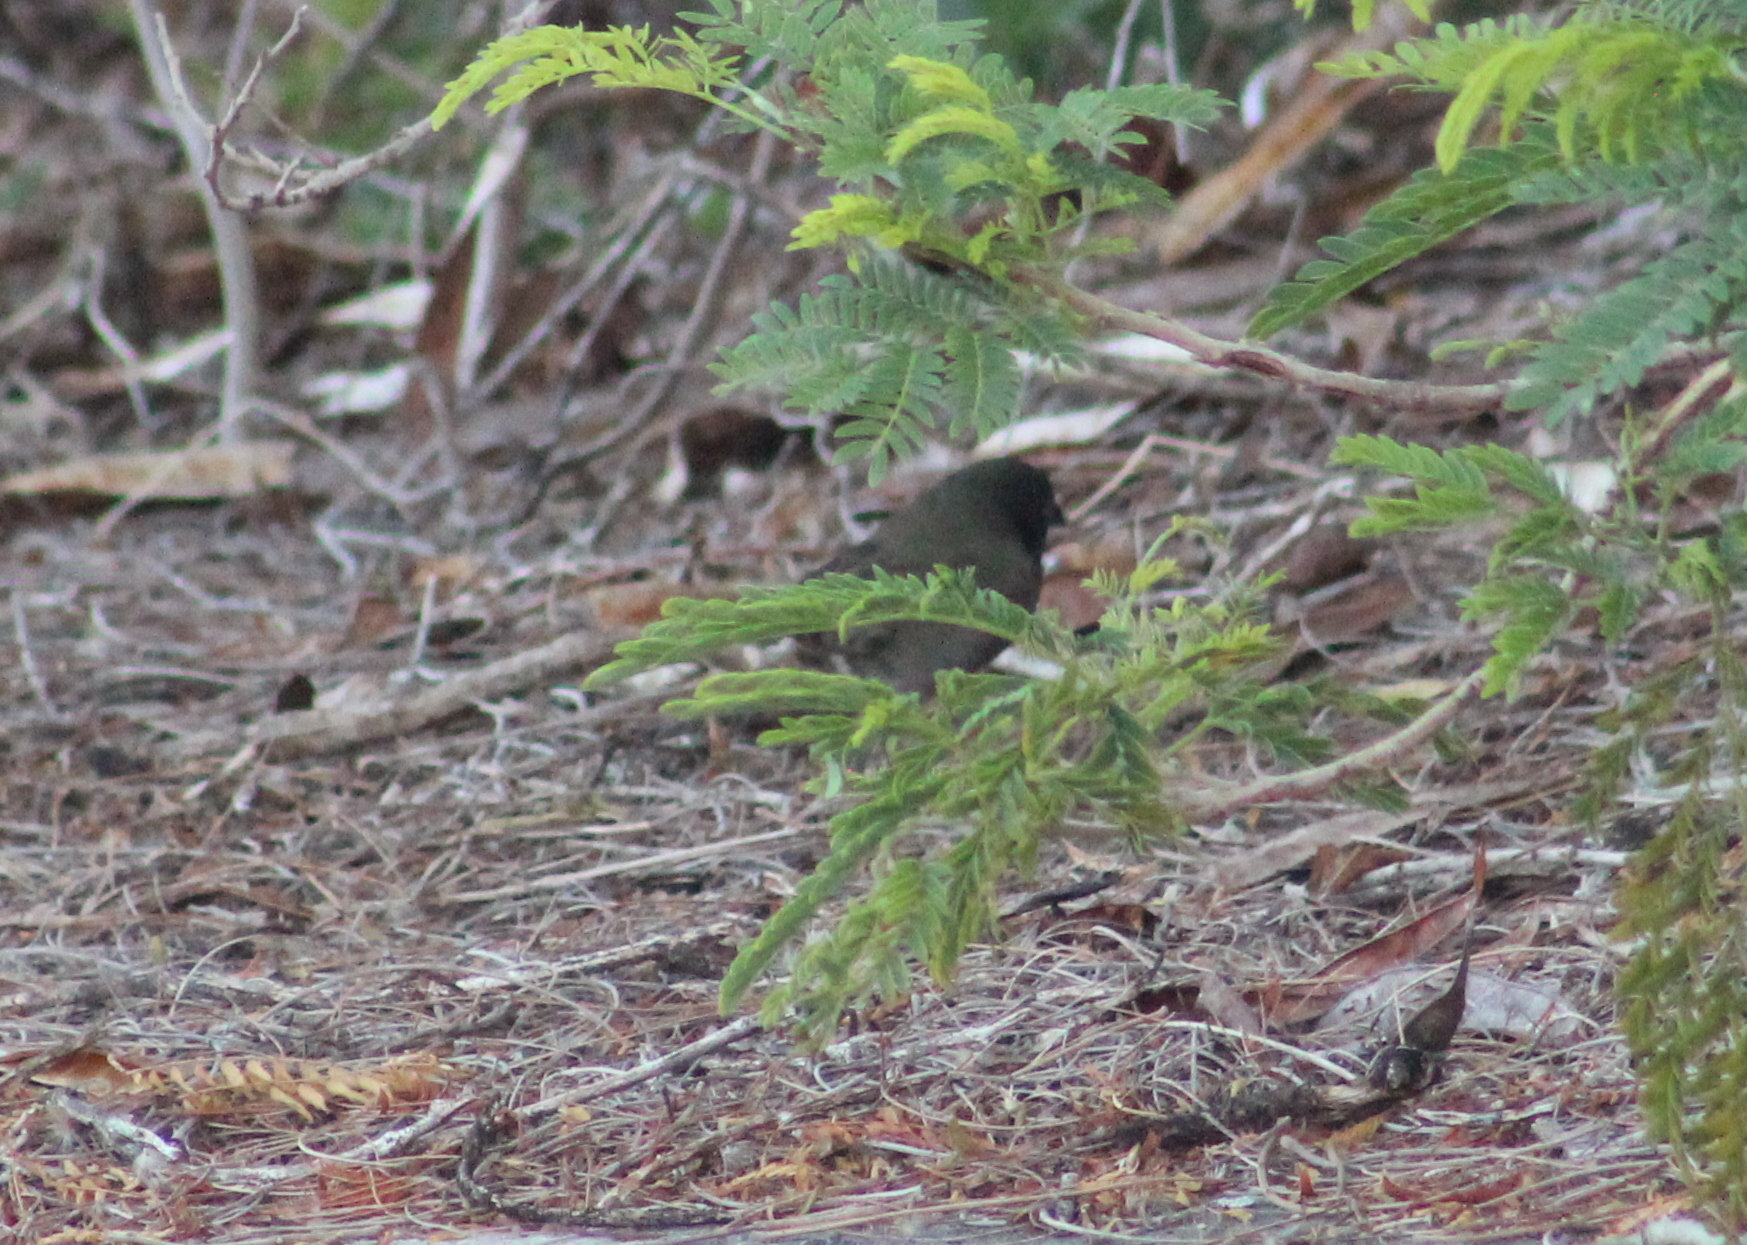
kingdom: Animalia
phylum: Chordata
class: Aves
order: Passeriformes
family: Thraupidae
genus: Melanospiza
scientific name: Melanospiza bicolor
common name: Black-faced grassquit
